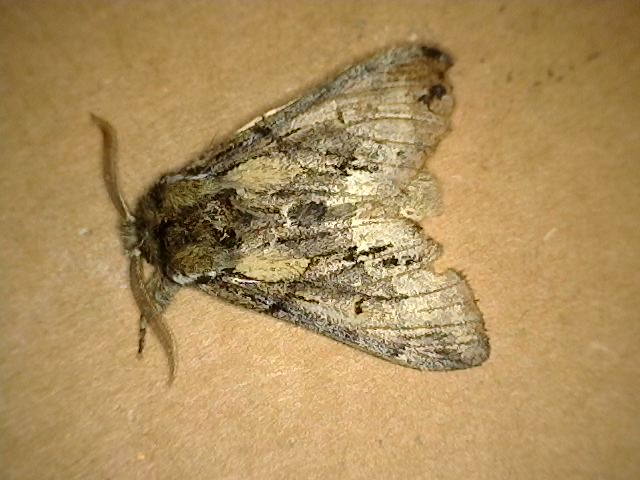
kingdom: Animalia
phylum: Arthropoda
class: Insecta
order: Lepidoptera
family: Notodontidae
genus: Paraeschra
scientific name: Paraeschra georgica
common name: Georgian prominent
